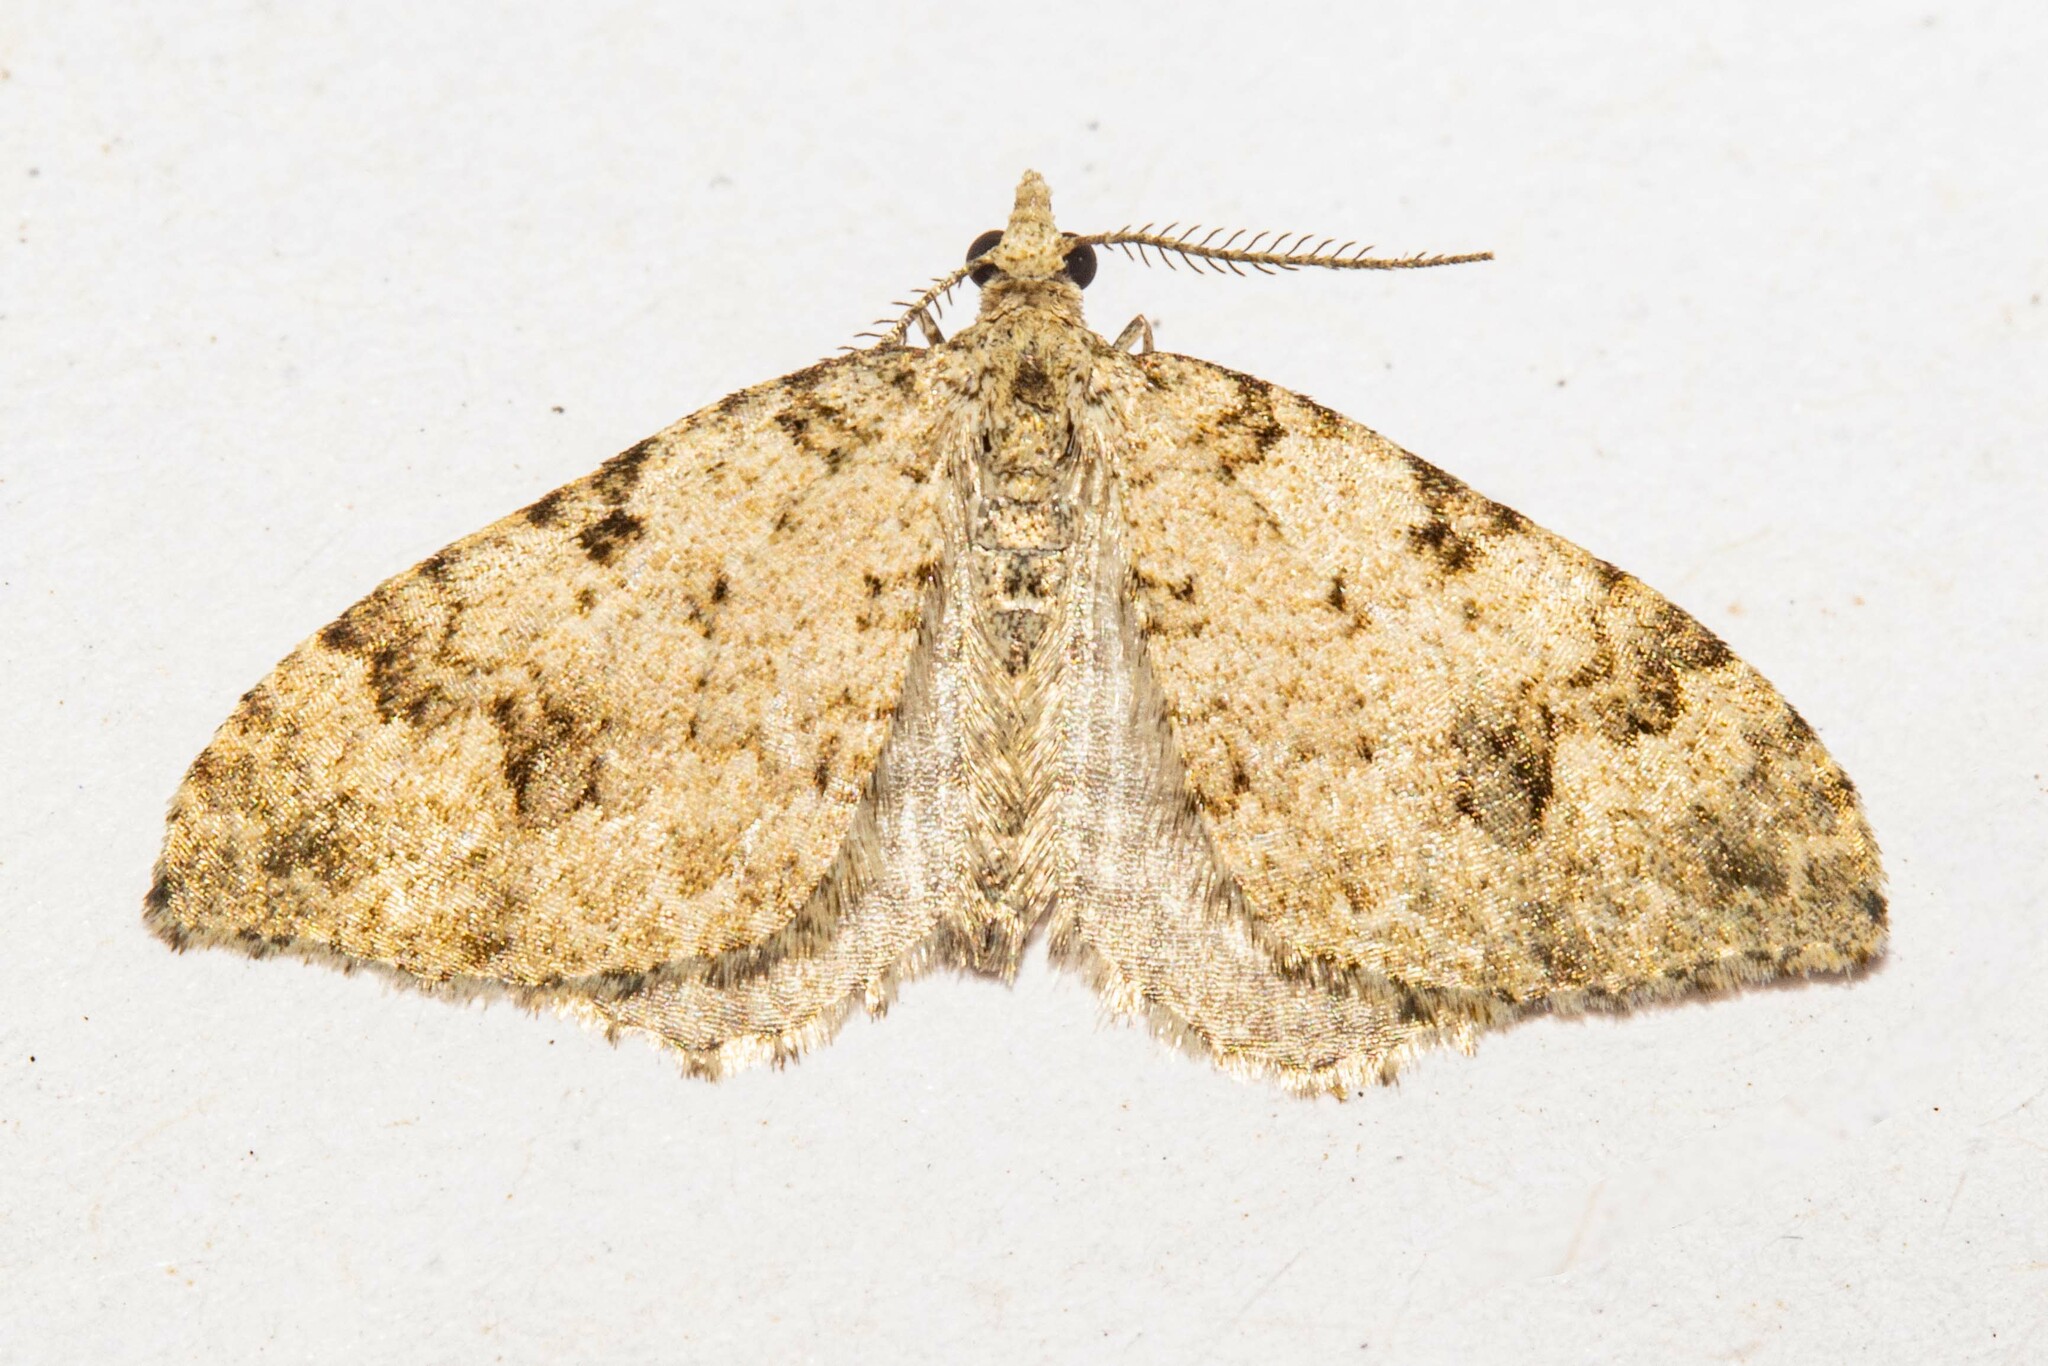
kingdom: Animalia
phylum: Arthropoda
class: Insecta
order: Lepidoptera
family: Geometridae
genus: Helastia
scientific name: Helastia cinerearia
